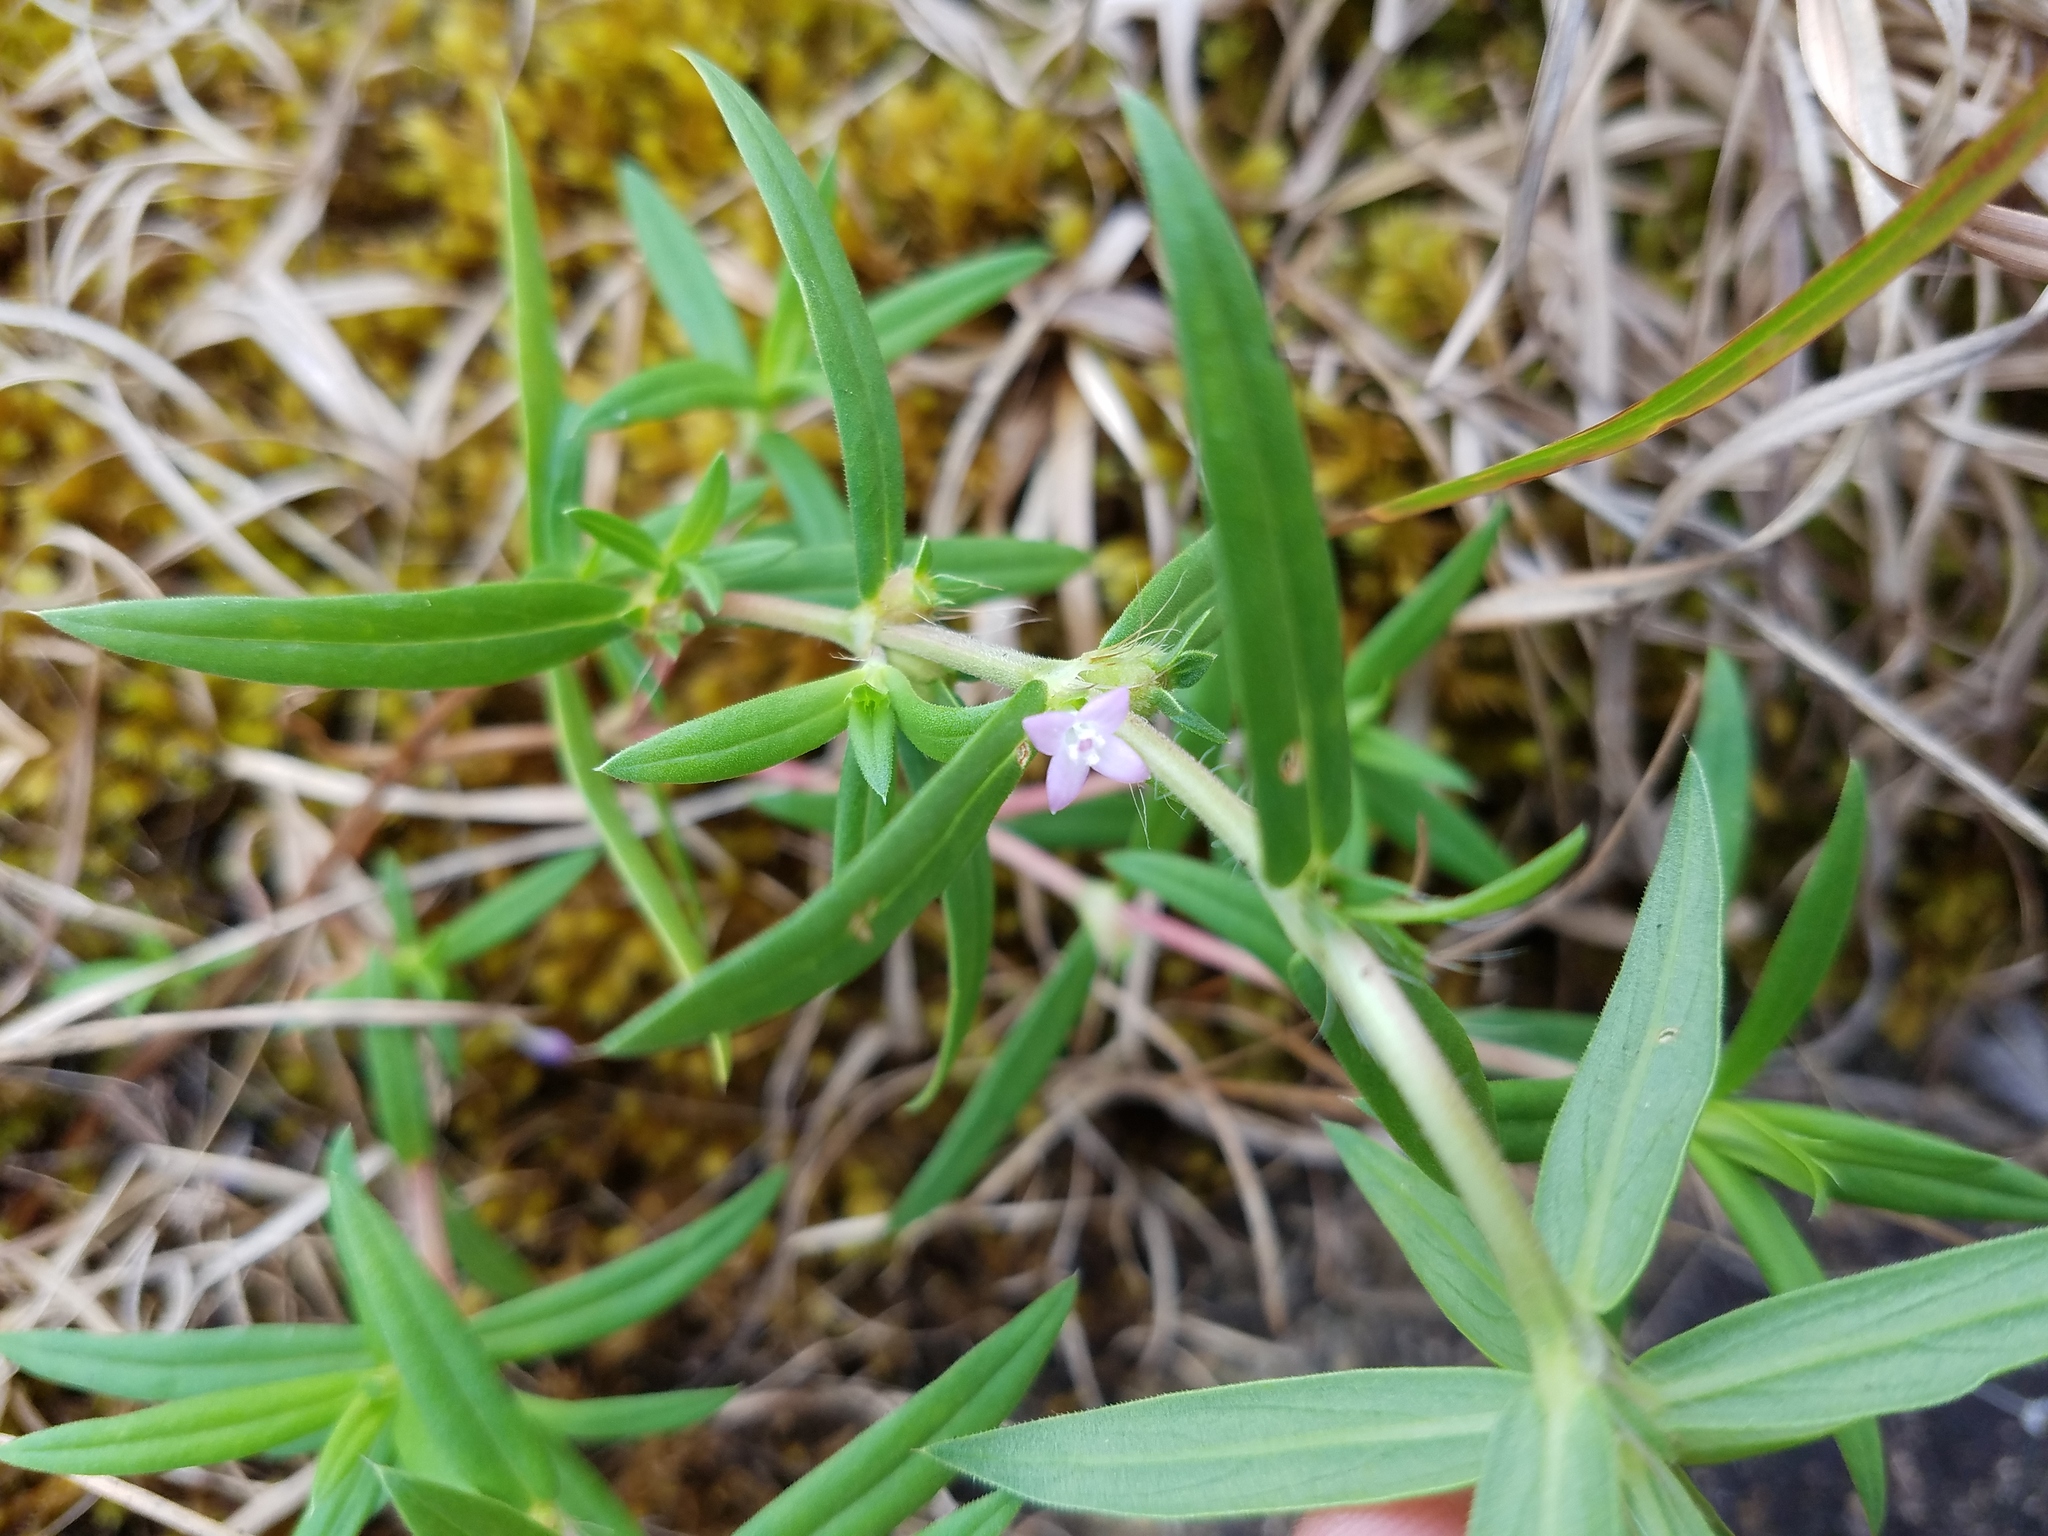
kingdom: Plantae
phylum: Tracheophyta
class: Magnoliopsida
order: Gentianales
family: Rubiaceae
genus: Hexasepalum
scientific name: Hexasepalum teres
